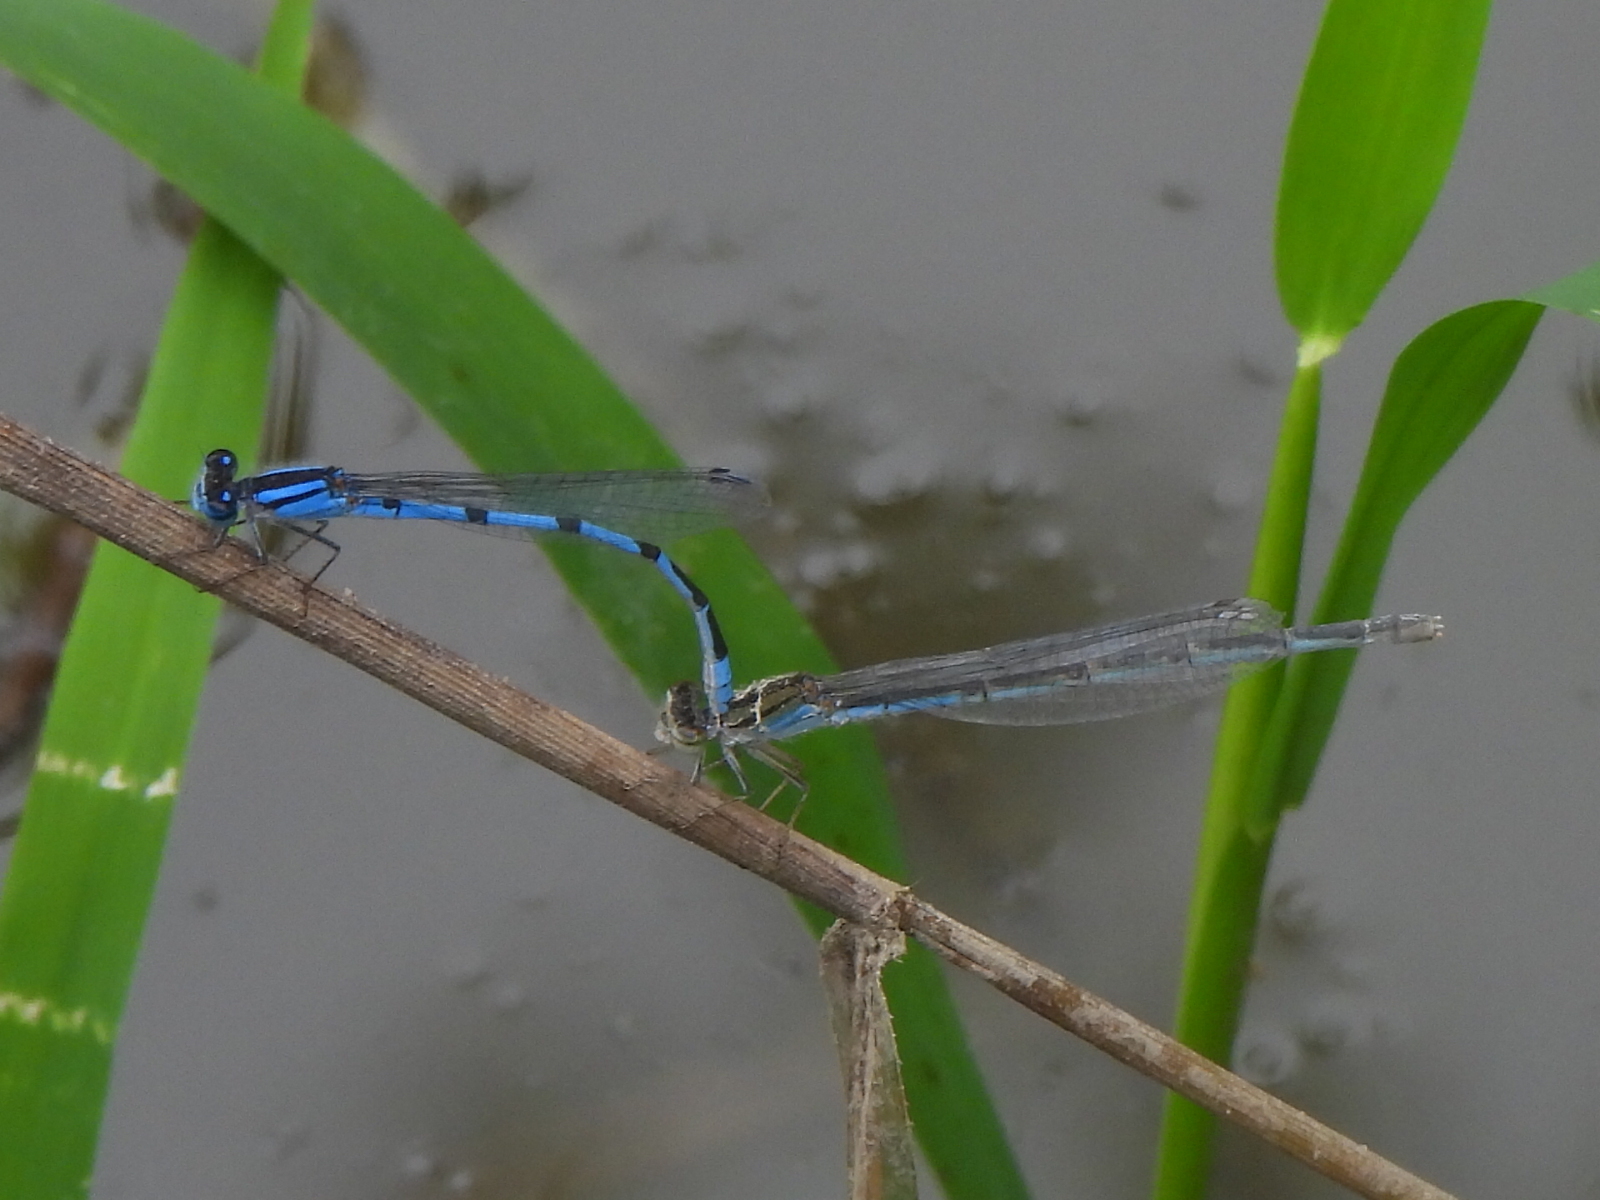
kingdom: Animalia
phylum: Arthropoda
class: Insecta
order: Odonata
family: Coenagrionidae
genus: Enallagma
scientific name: Enallagma civile
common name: Damselfly
